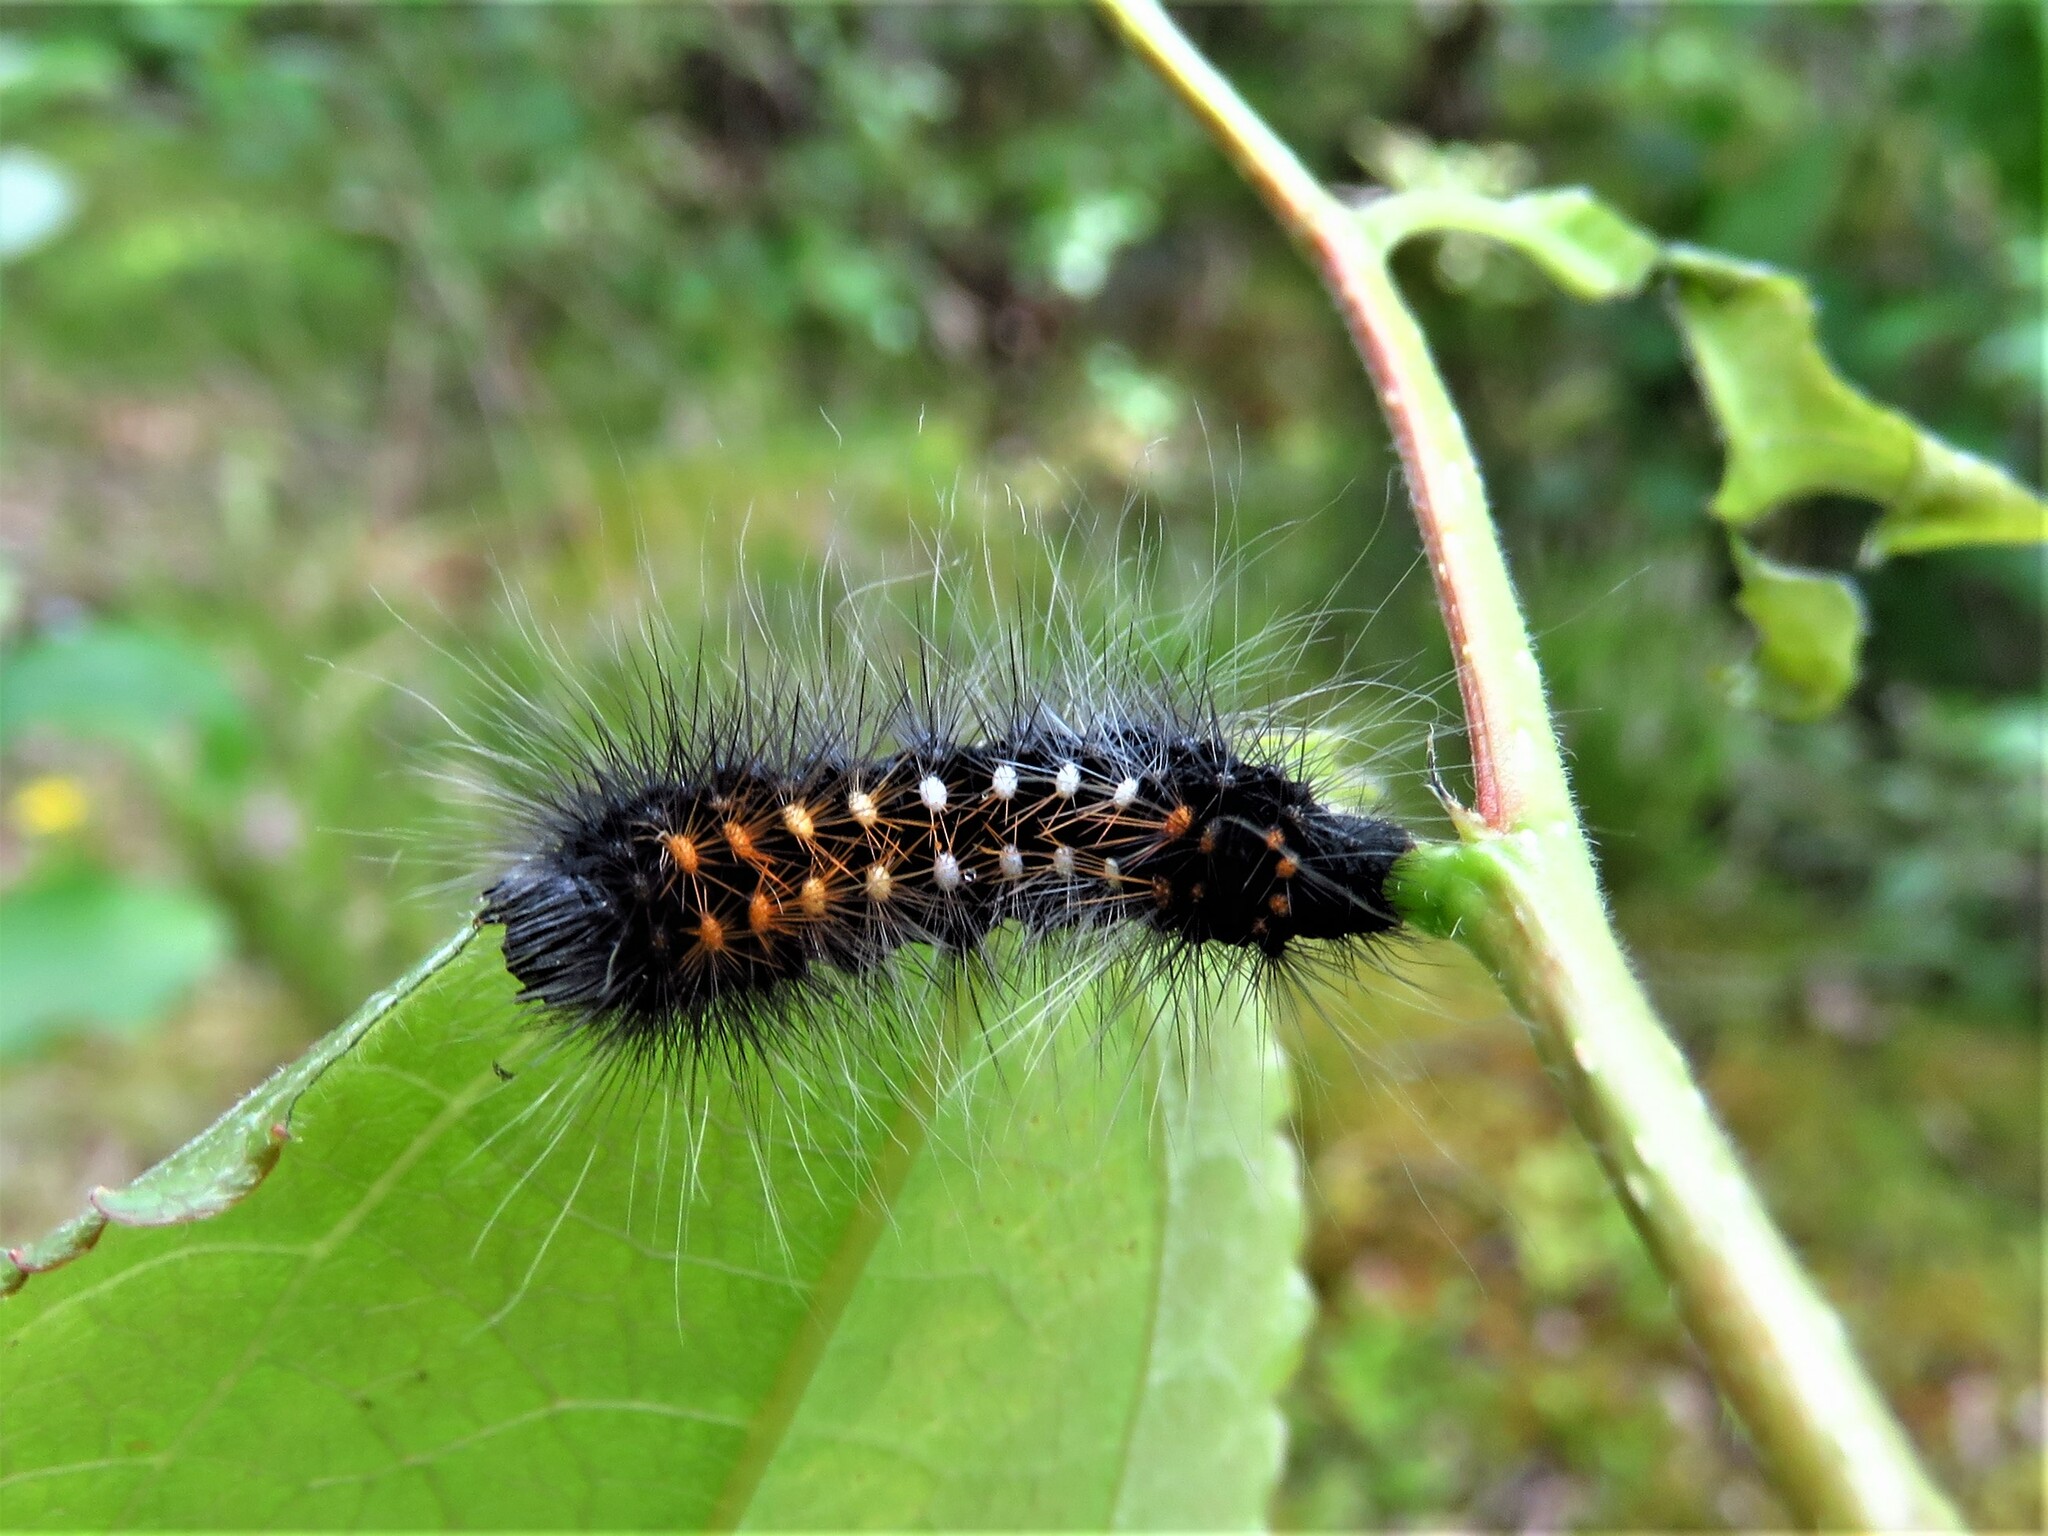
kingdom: Animalia
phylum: Arthropoda
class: Insecta
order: Lepidoptera
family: Noctuidae
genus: Acronicta
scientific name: Acronicta auricoma
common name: Scarce dagger
